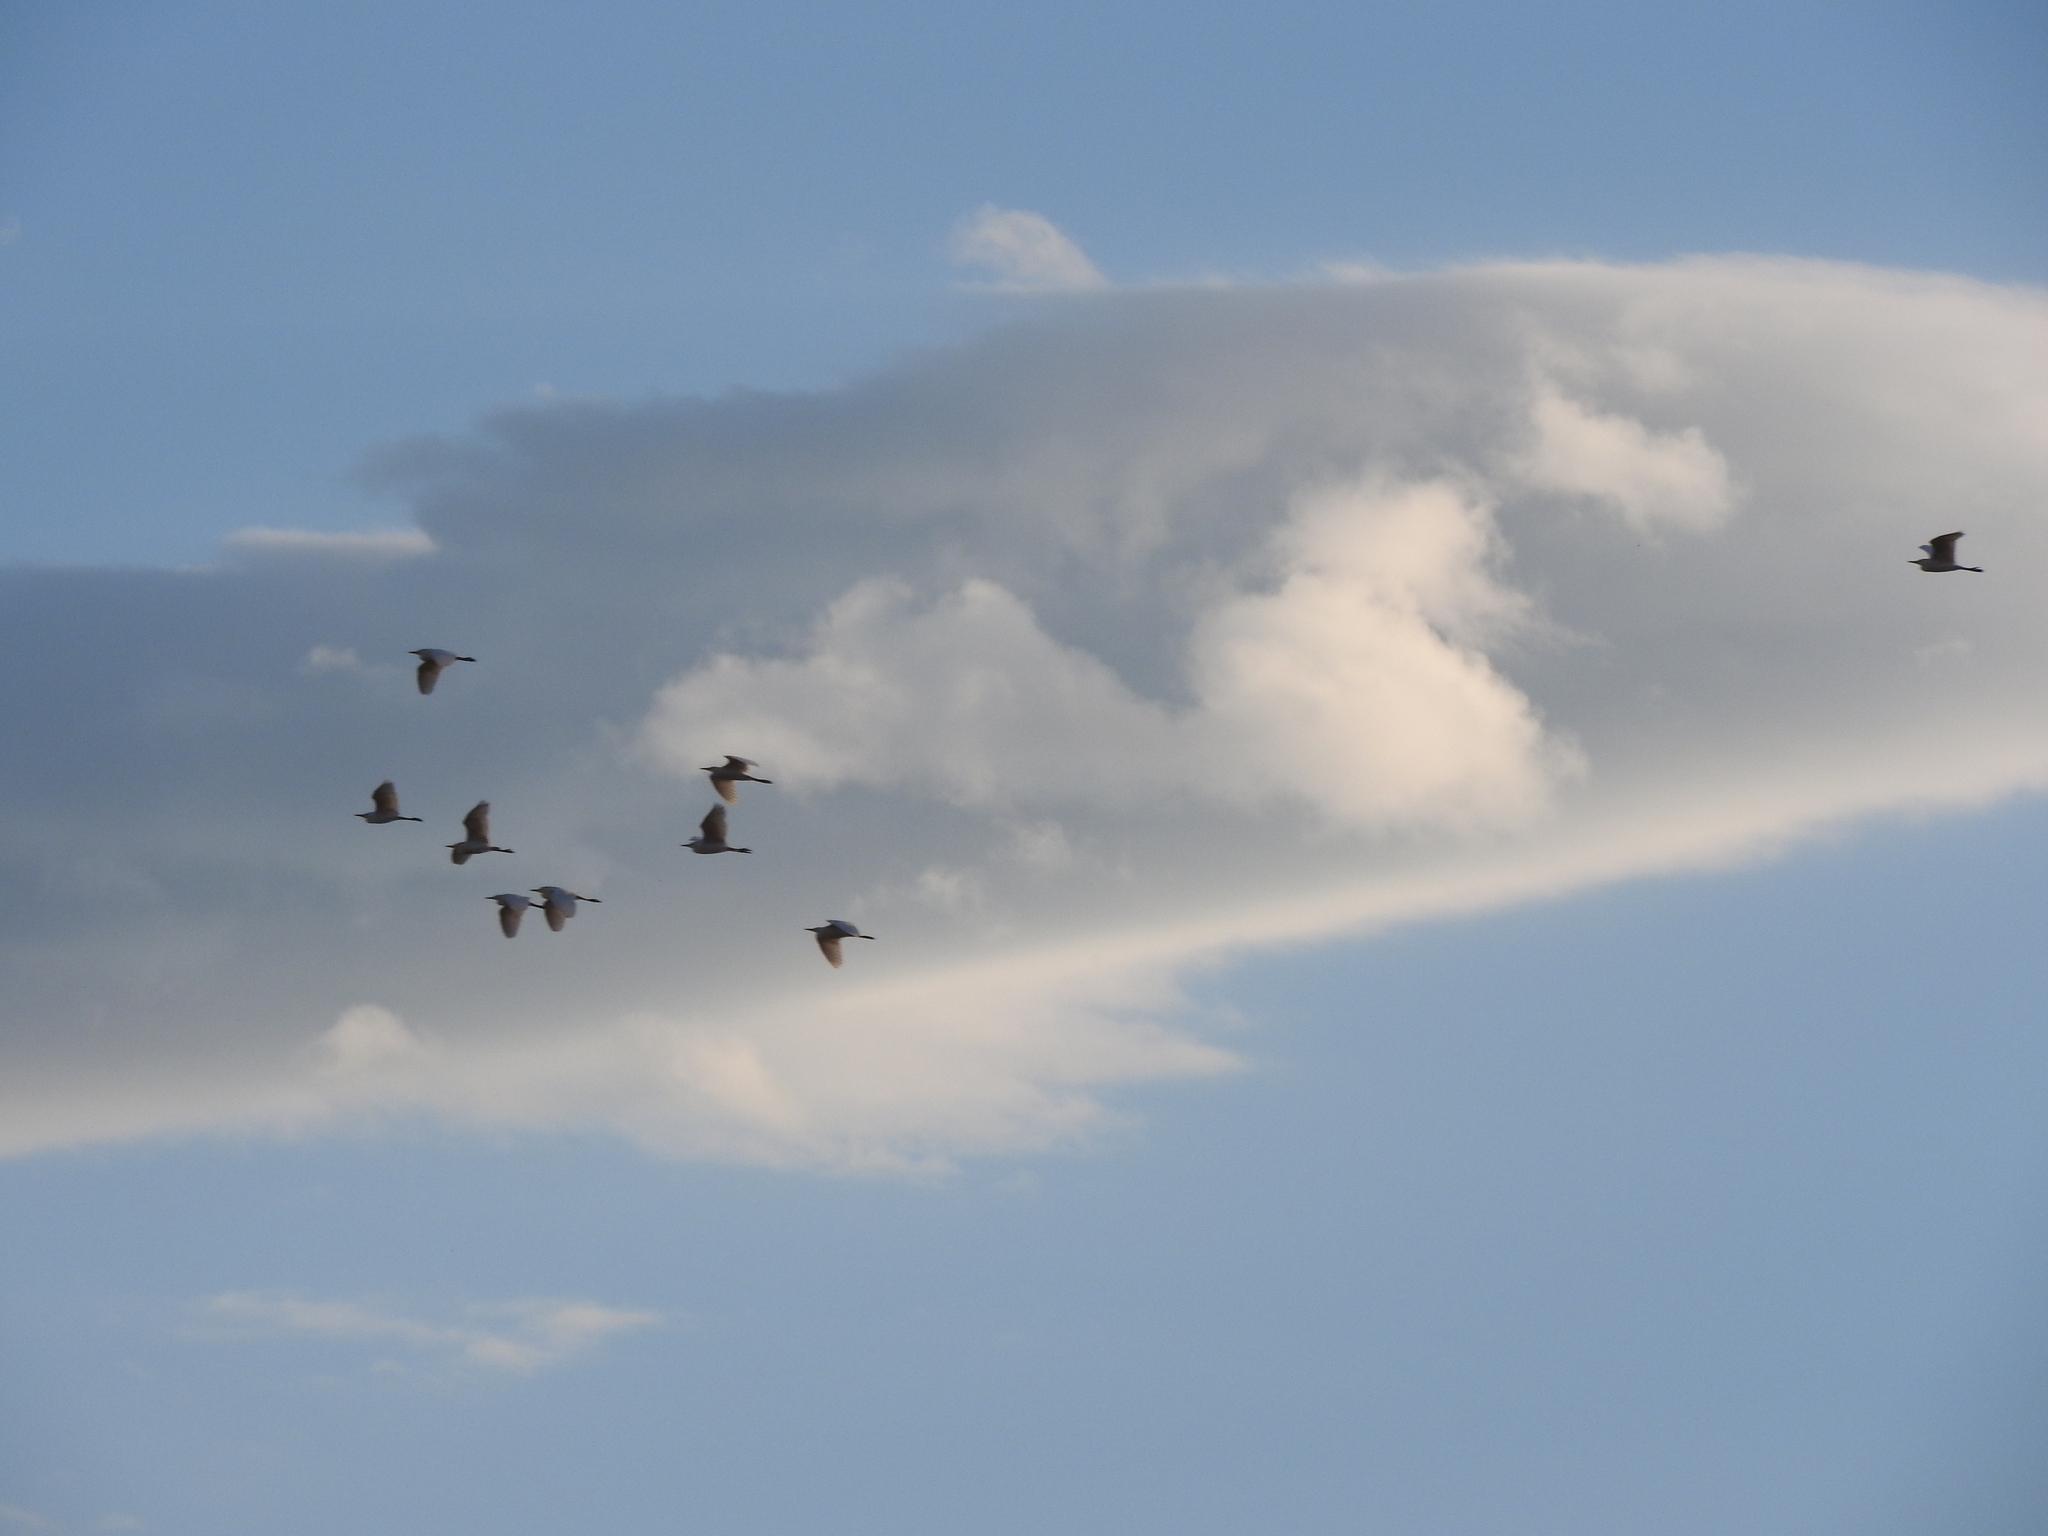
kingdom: Animalia
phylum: Chordata
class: Aves
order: Pelecaniformes
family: Ardeidae
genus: Bubulcus
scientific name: Bubulcus ibis
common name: Cattle egret
